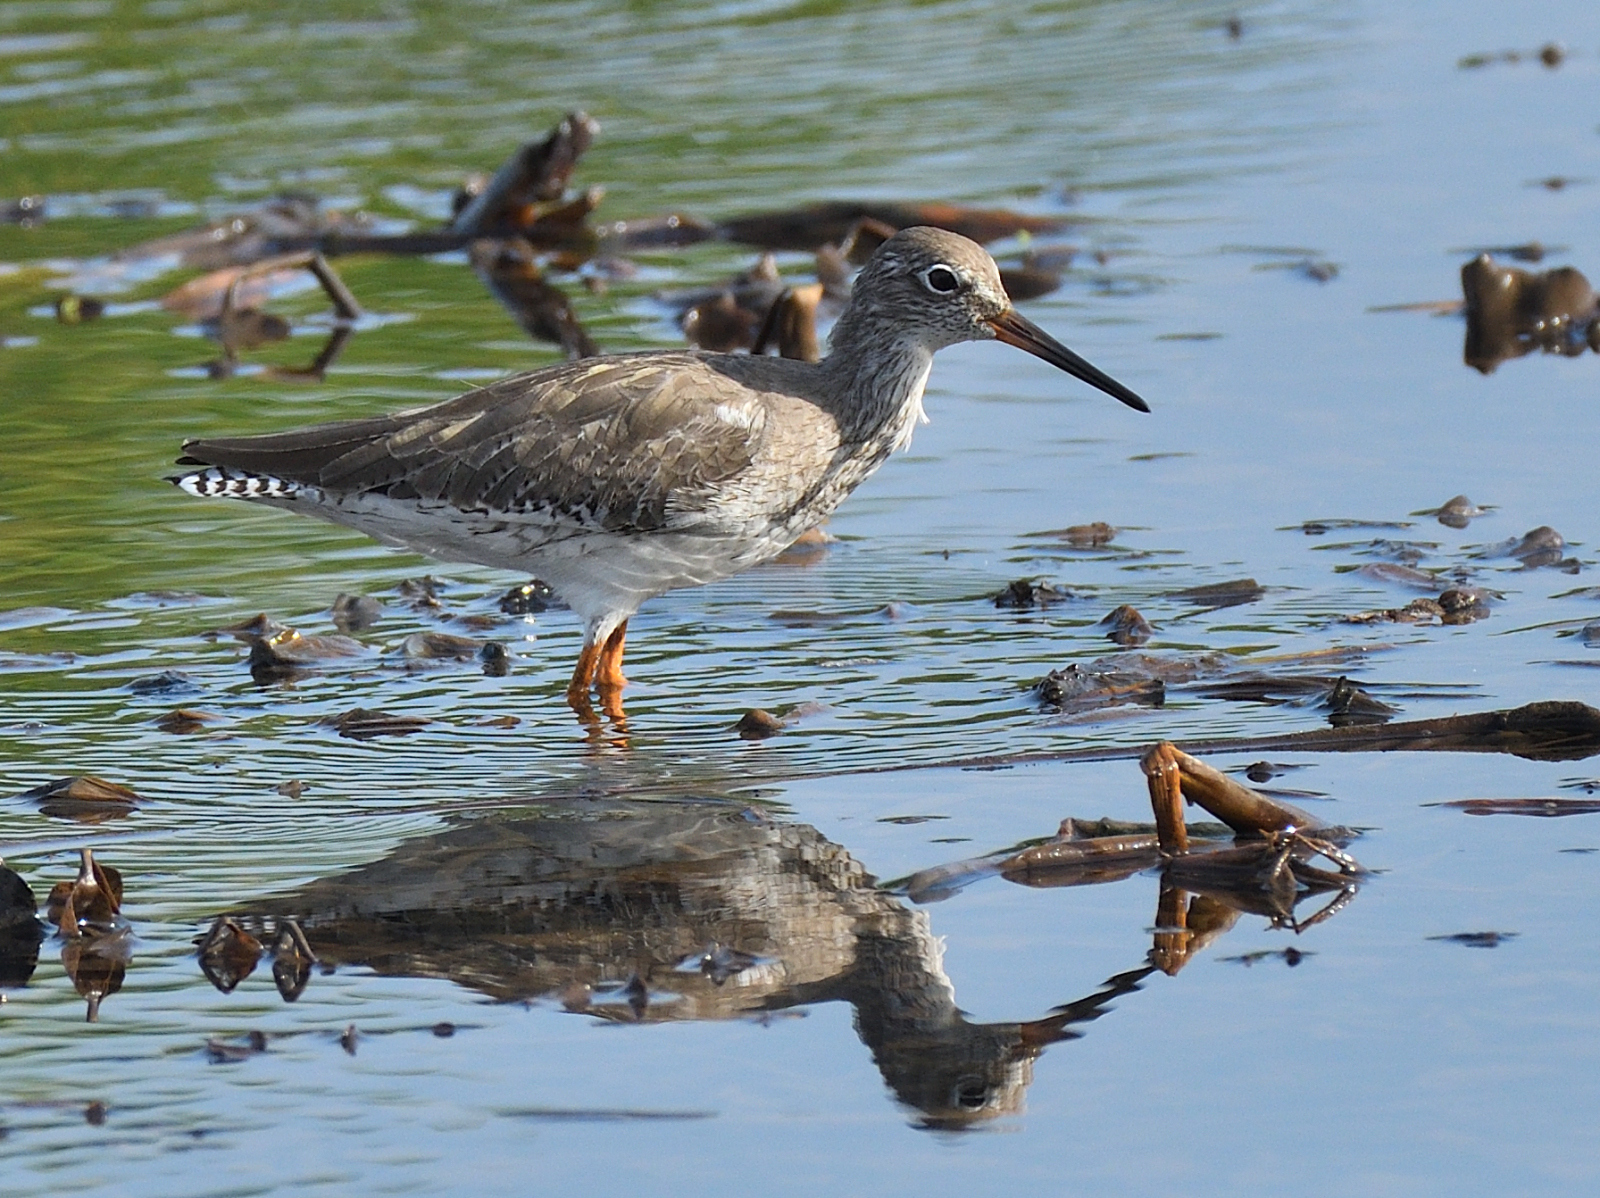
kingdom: Animalia
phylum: Chordata
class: Aves
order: Charadriiformes
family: Scolopacidae
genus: Tringa
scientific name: Tringa totanus
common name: Common redshank
